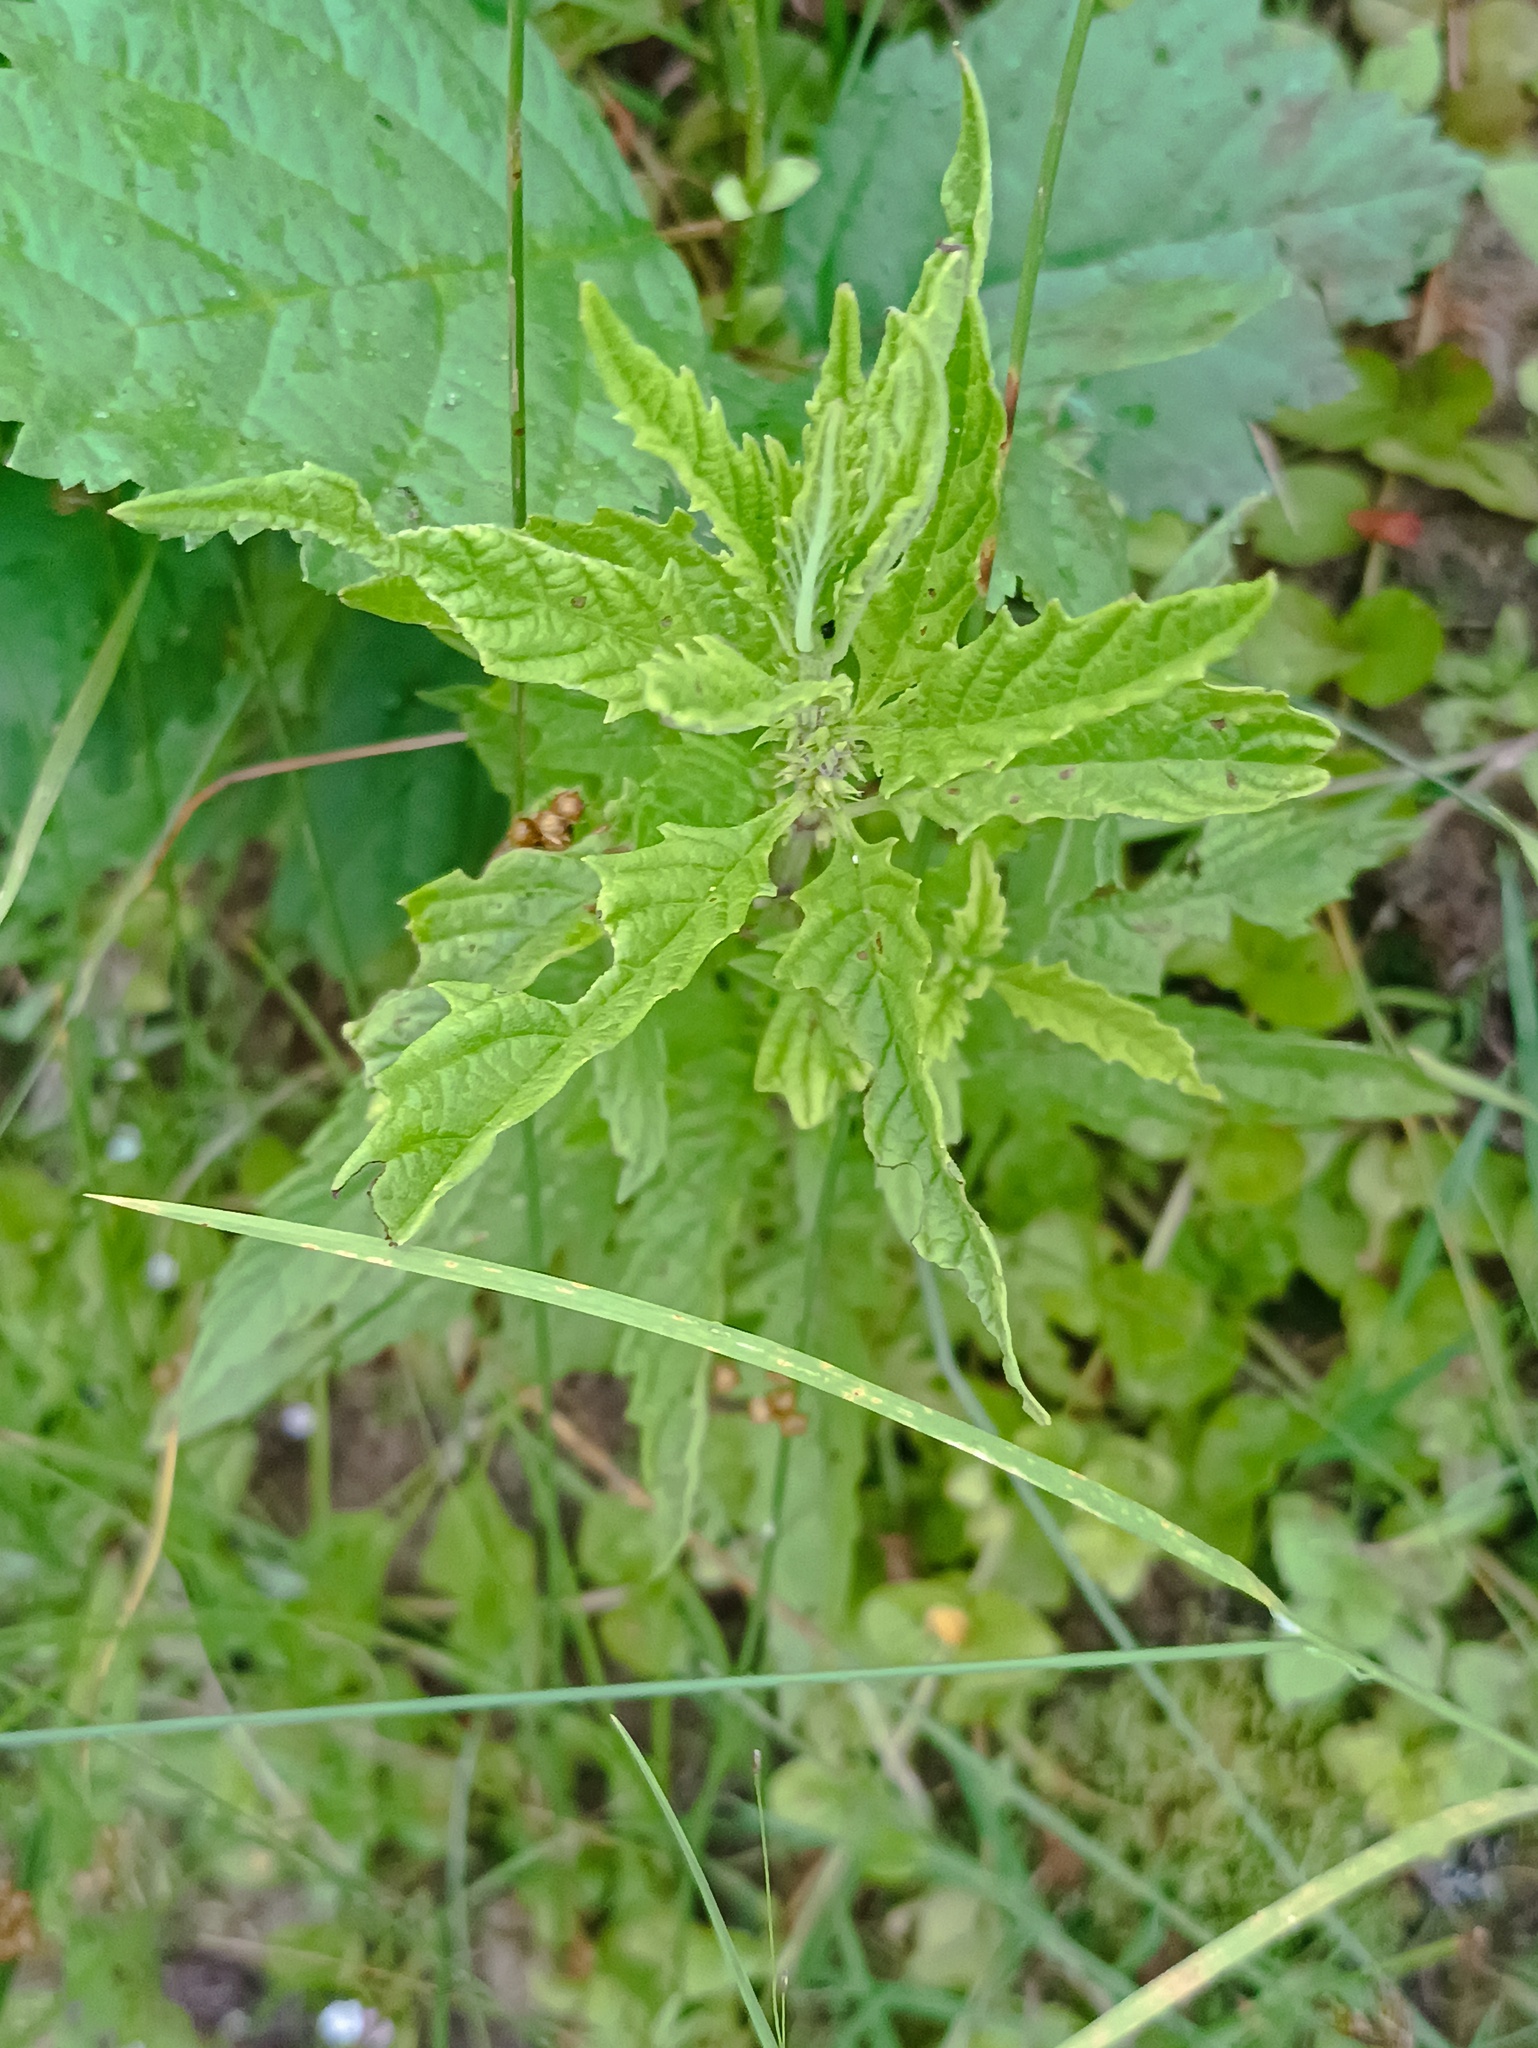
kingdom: Plantae
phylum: Tracheophyta
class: Magnoliopsida
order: Lamiales
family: Lamiaceae
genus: Lycopus
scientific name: Lycopus europaeus
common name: European bugleweed
